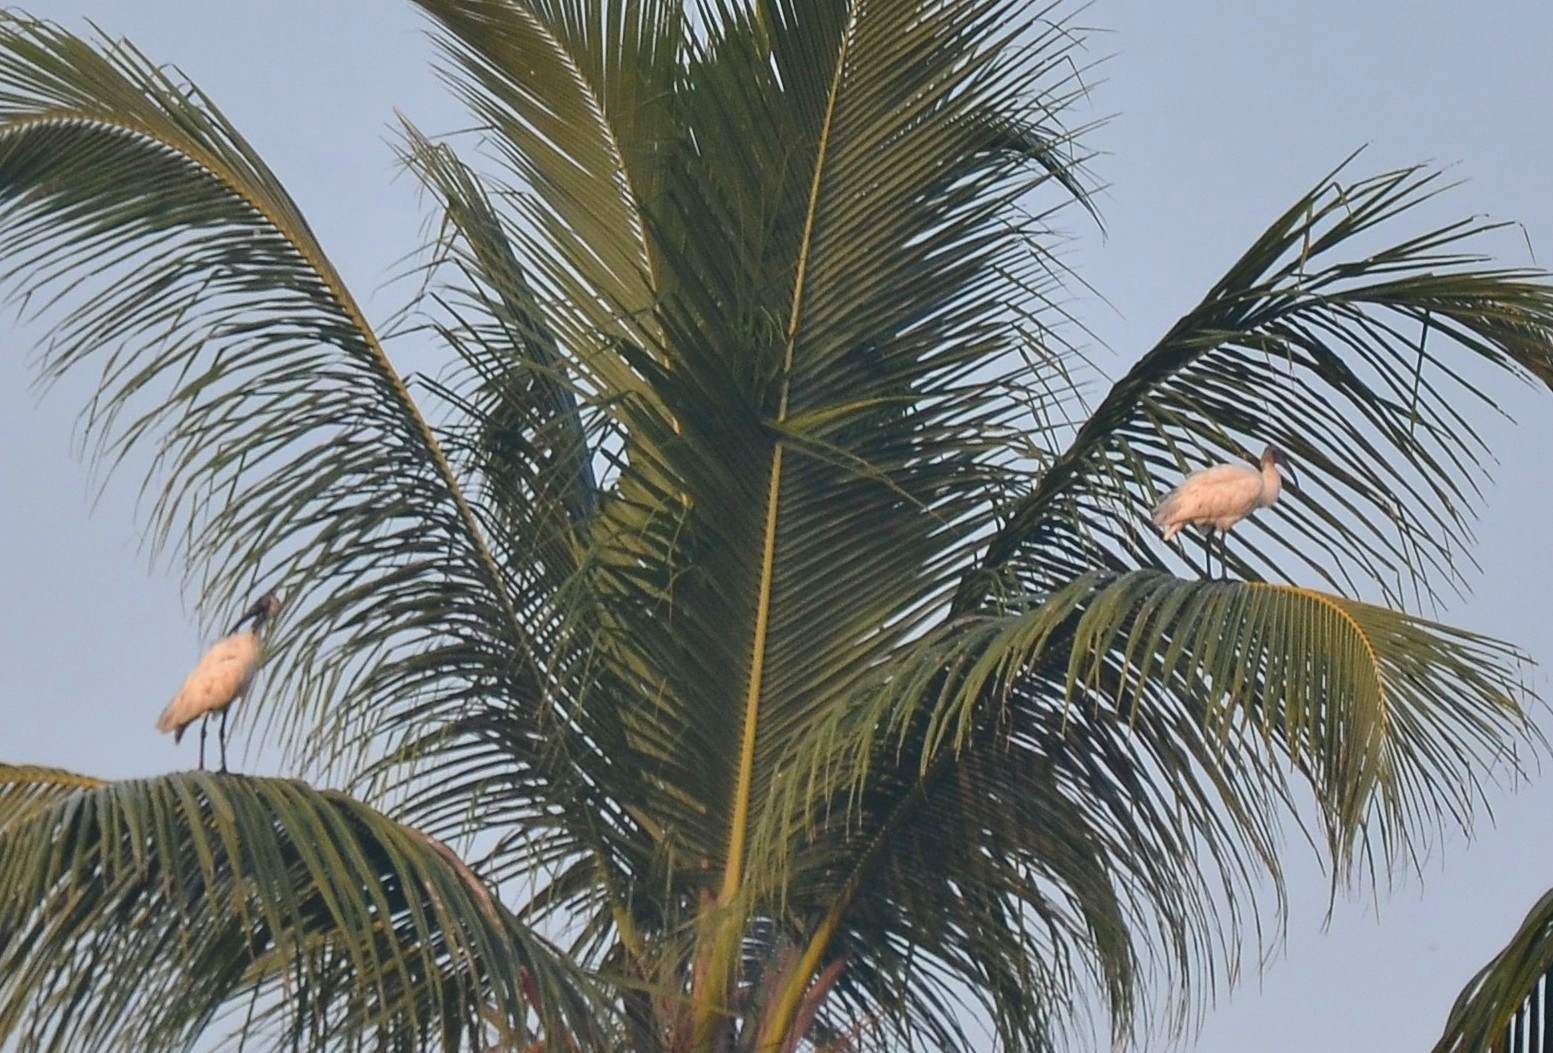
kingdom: Animalia
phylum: Chordata
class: Aves
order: Pelecaniformes
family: Threskiornithidae
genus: Threskiornis
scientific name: Threskiornis melanocephalus
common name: Black-headed ibis
